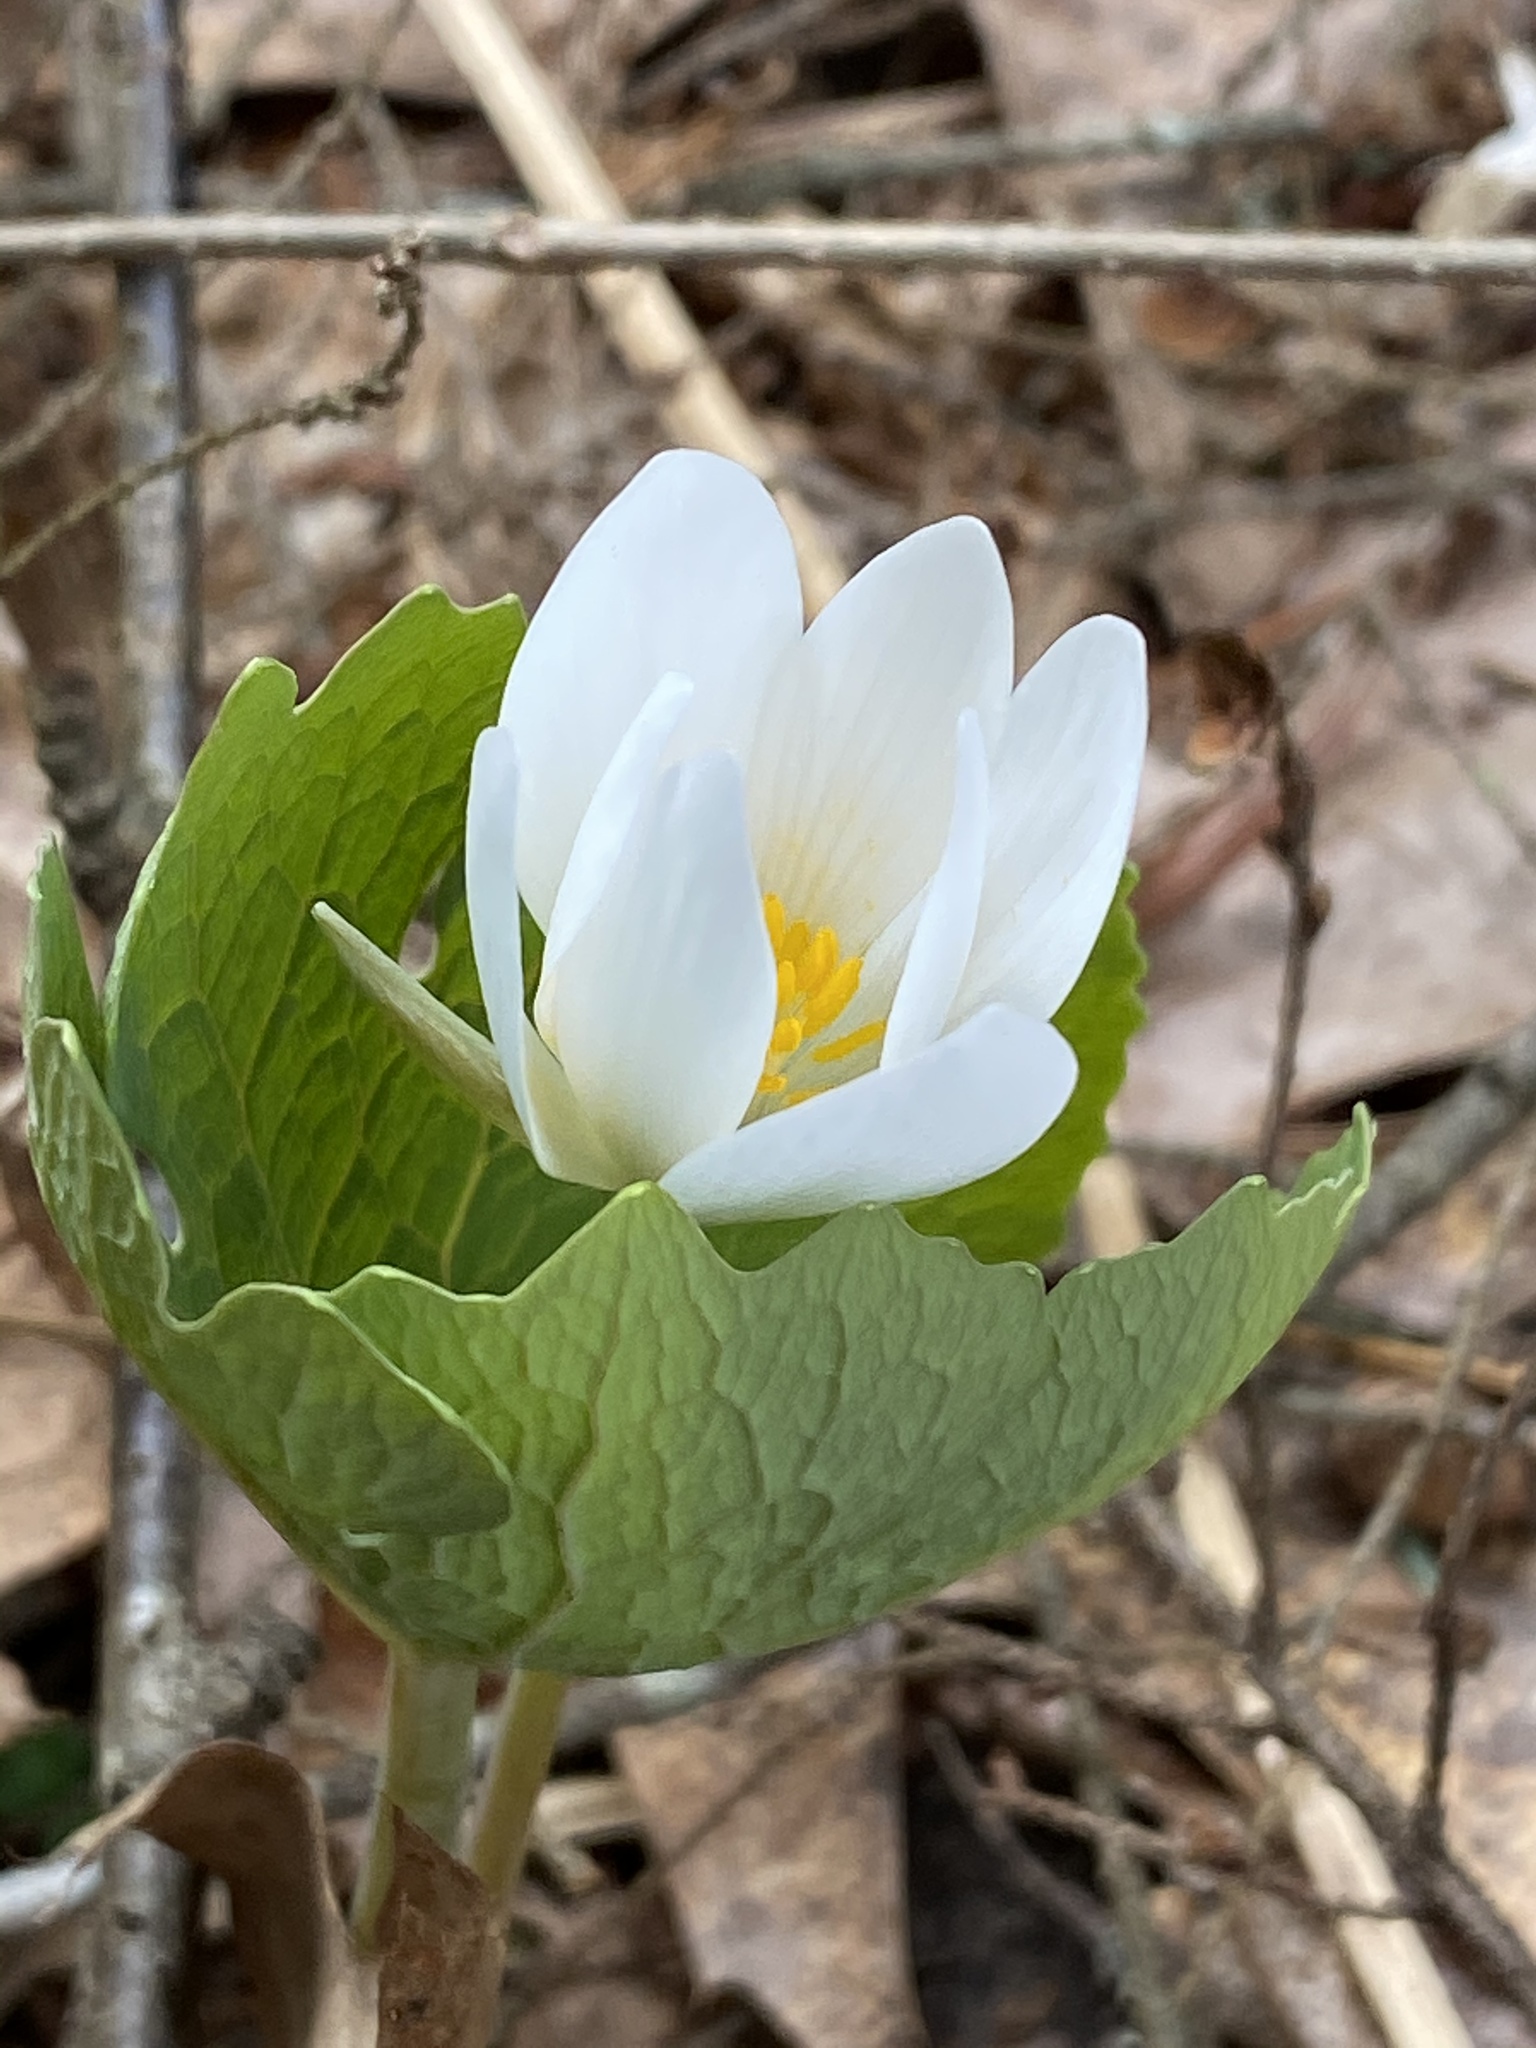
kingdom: Plantae
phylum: Tracheophyta
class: Magnoliopsida
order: Ranunculales
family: Papaveraceae
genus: Sanguinaria
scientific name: Sanguinaria canadensis
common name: Bloodroot
